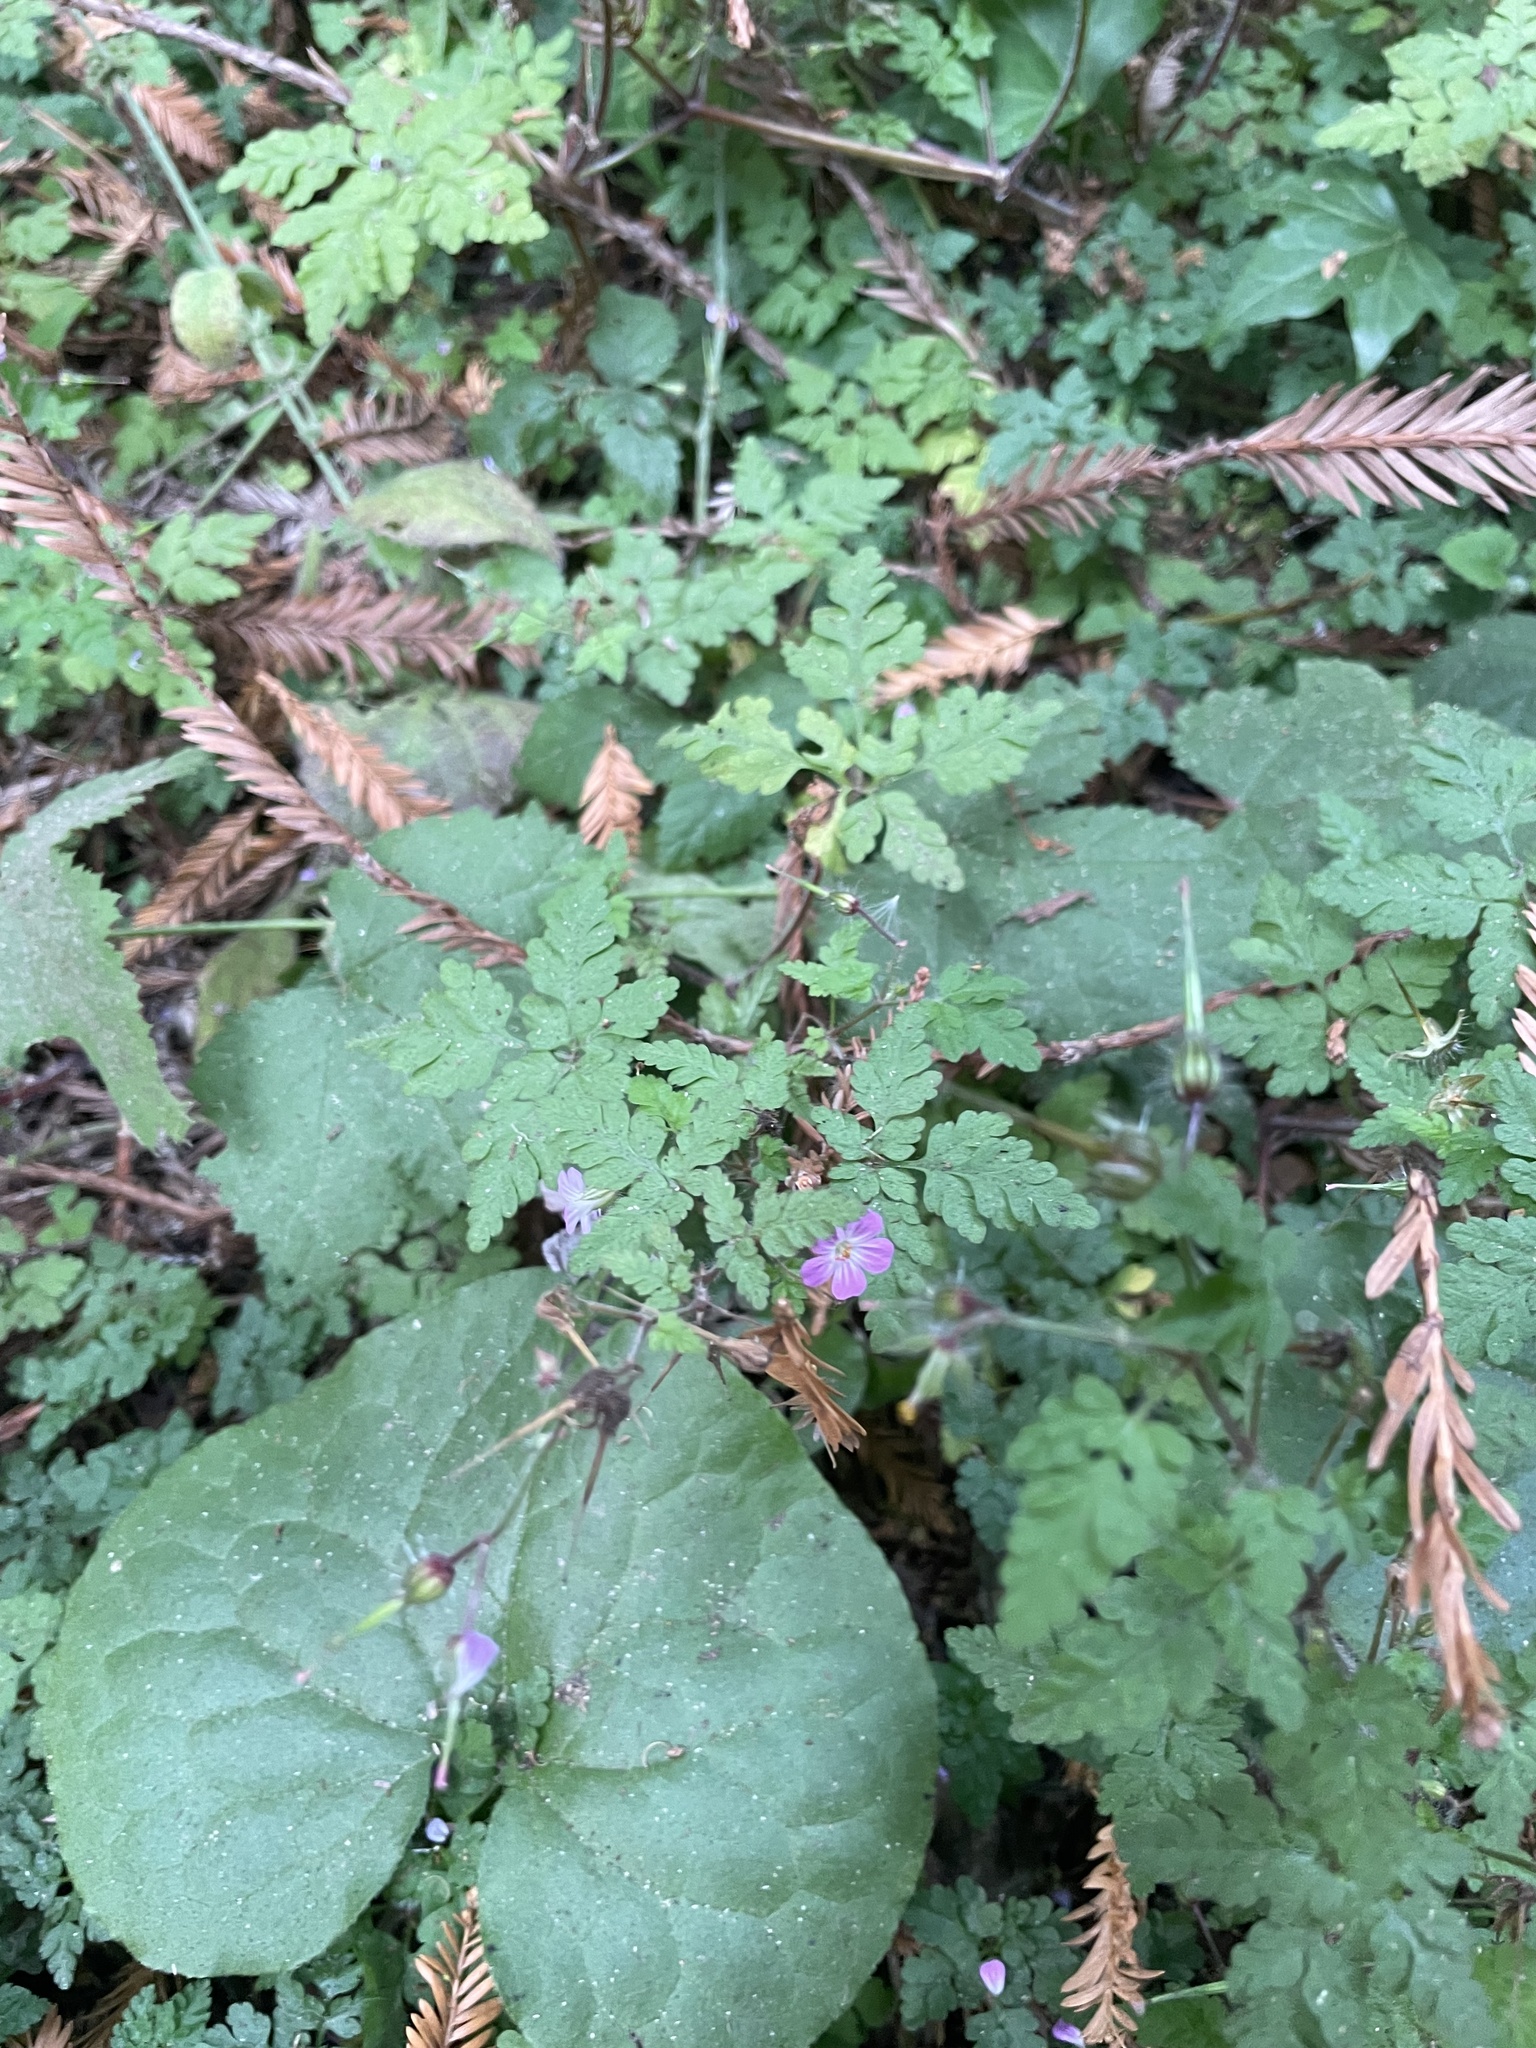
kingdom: Plantae
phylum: Tracheophyta
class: Magnoliopsida
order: Geraniales
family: Geraniaceae
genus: Geranium
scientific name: Geranium robertianum
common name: Herb-robert
